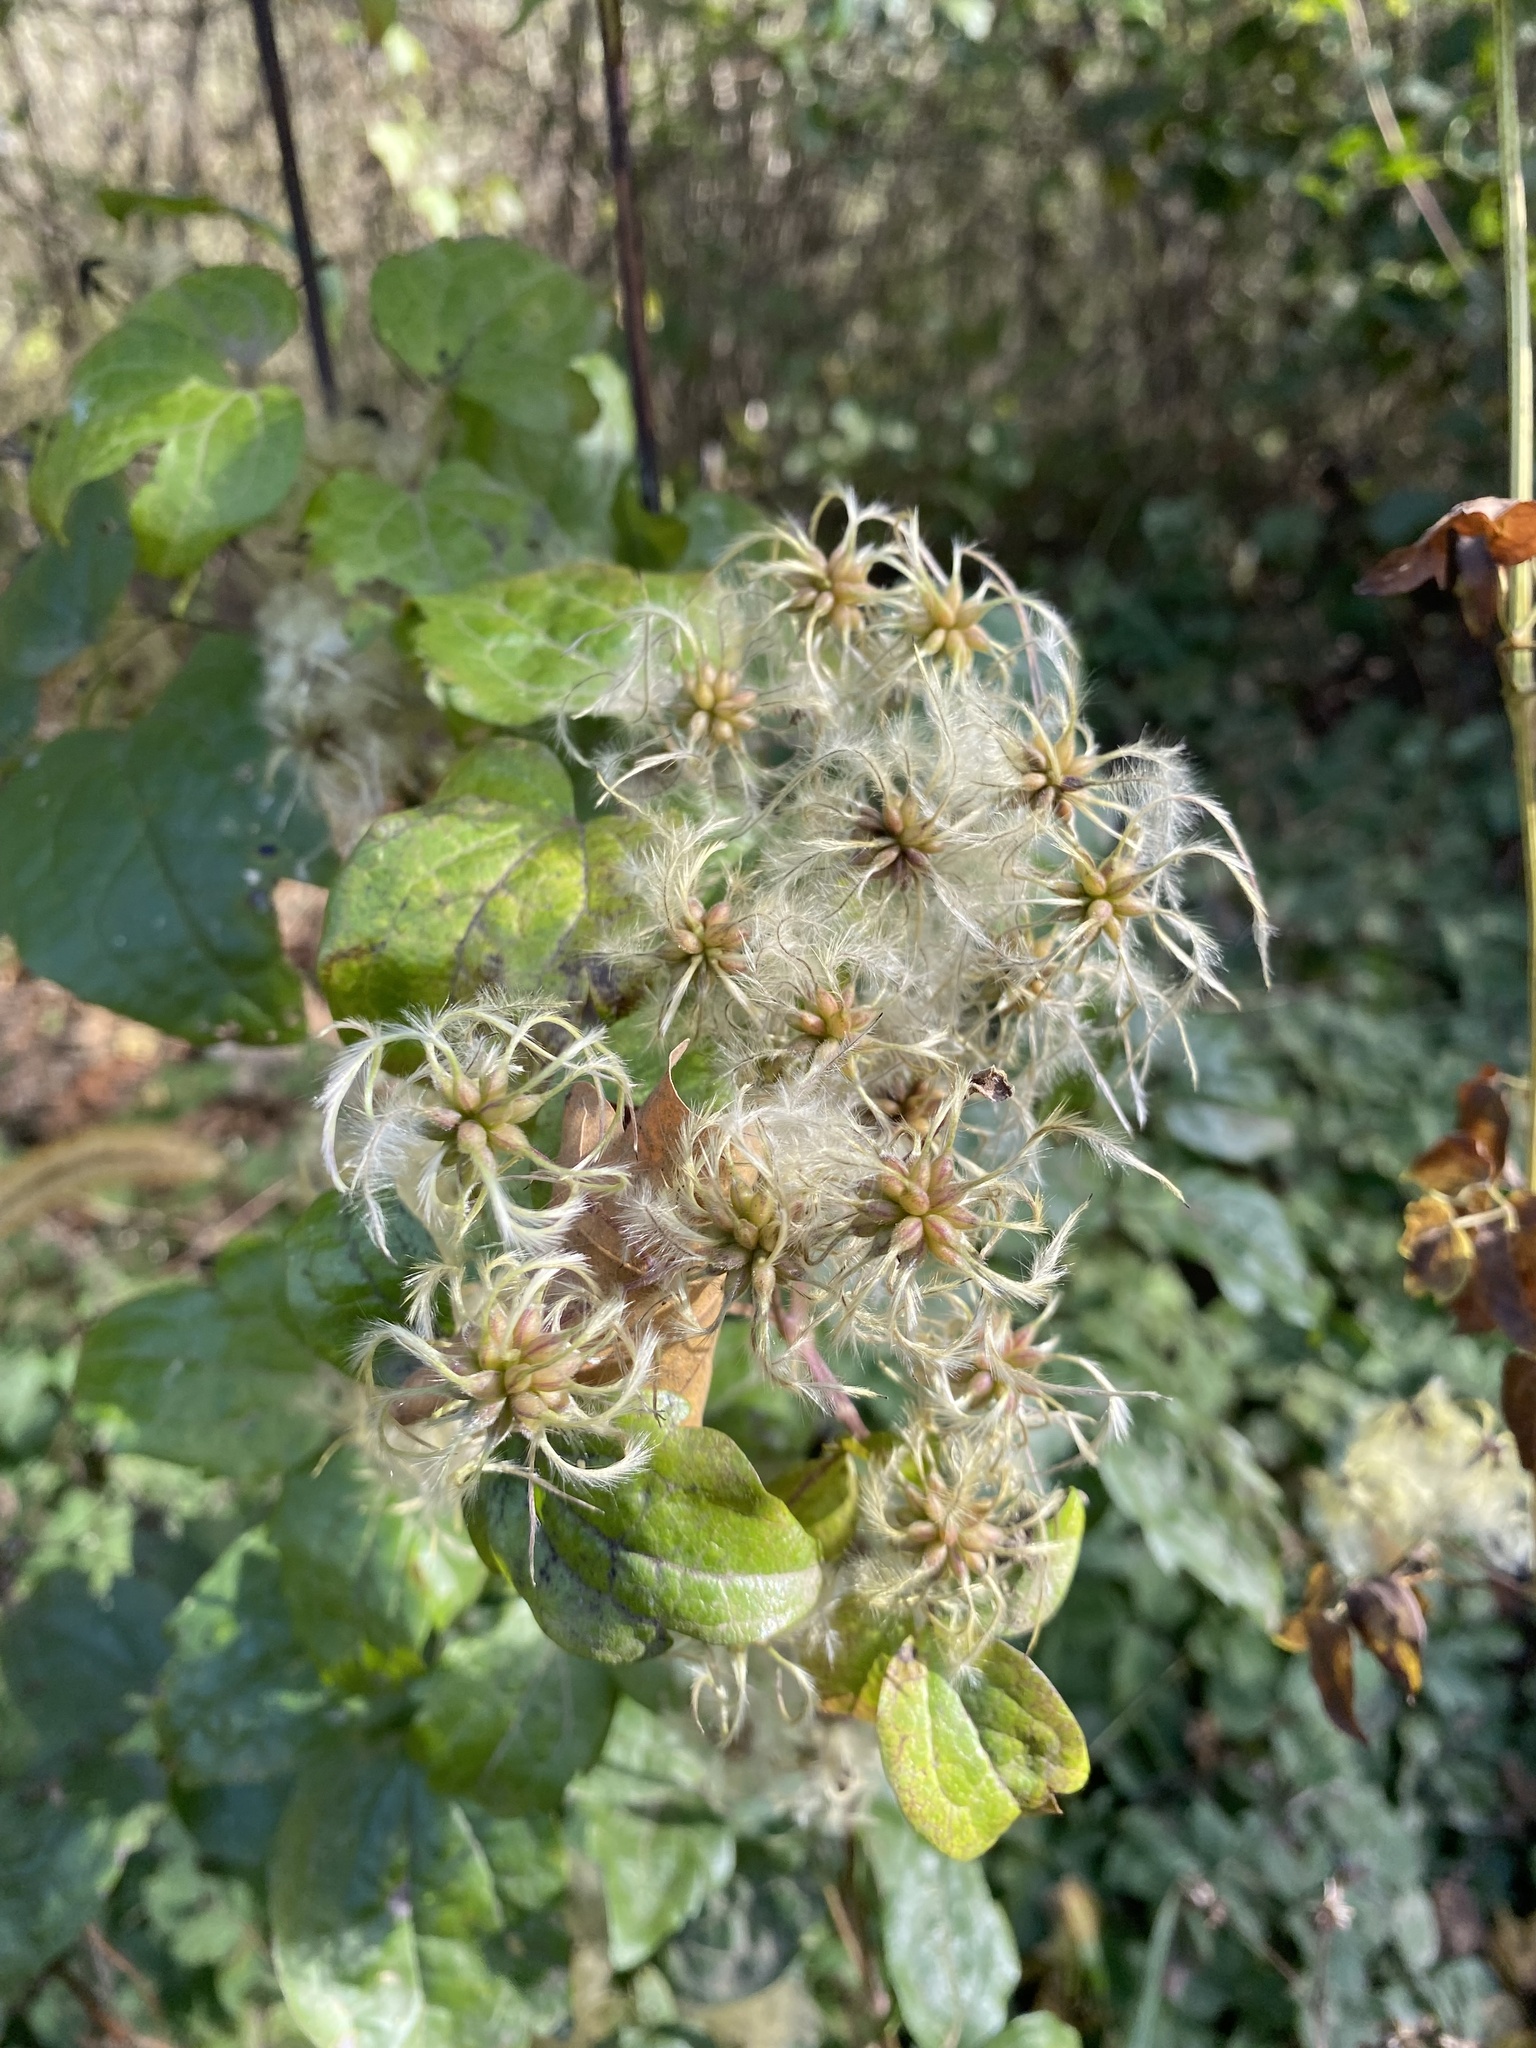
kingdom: Plantae
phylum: Tracheophyta
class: Magnoliopsida
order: Ranunculales
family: Ranunculaceae
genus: Clematis
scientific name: Clematis vitalba
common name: Evergreen clematis
